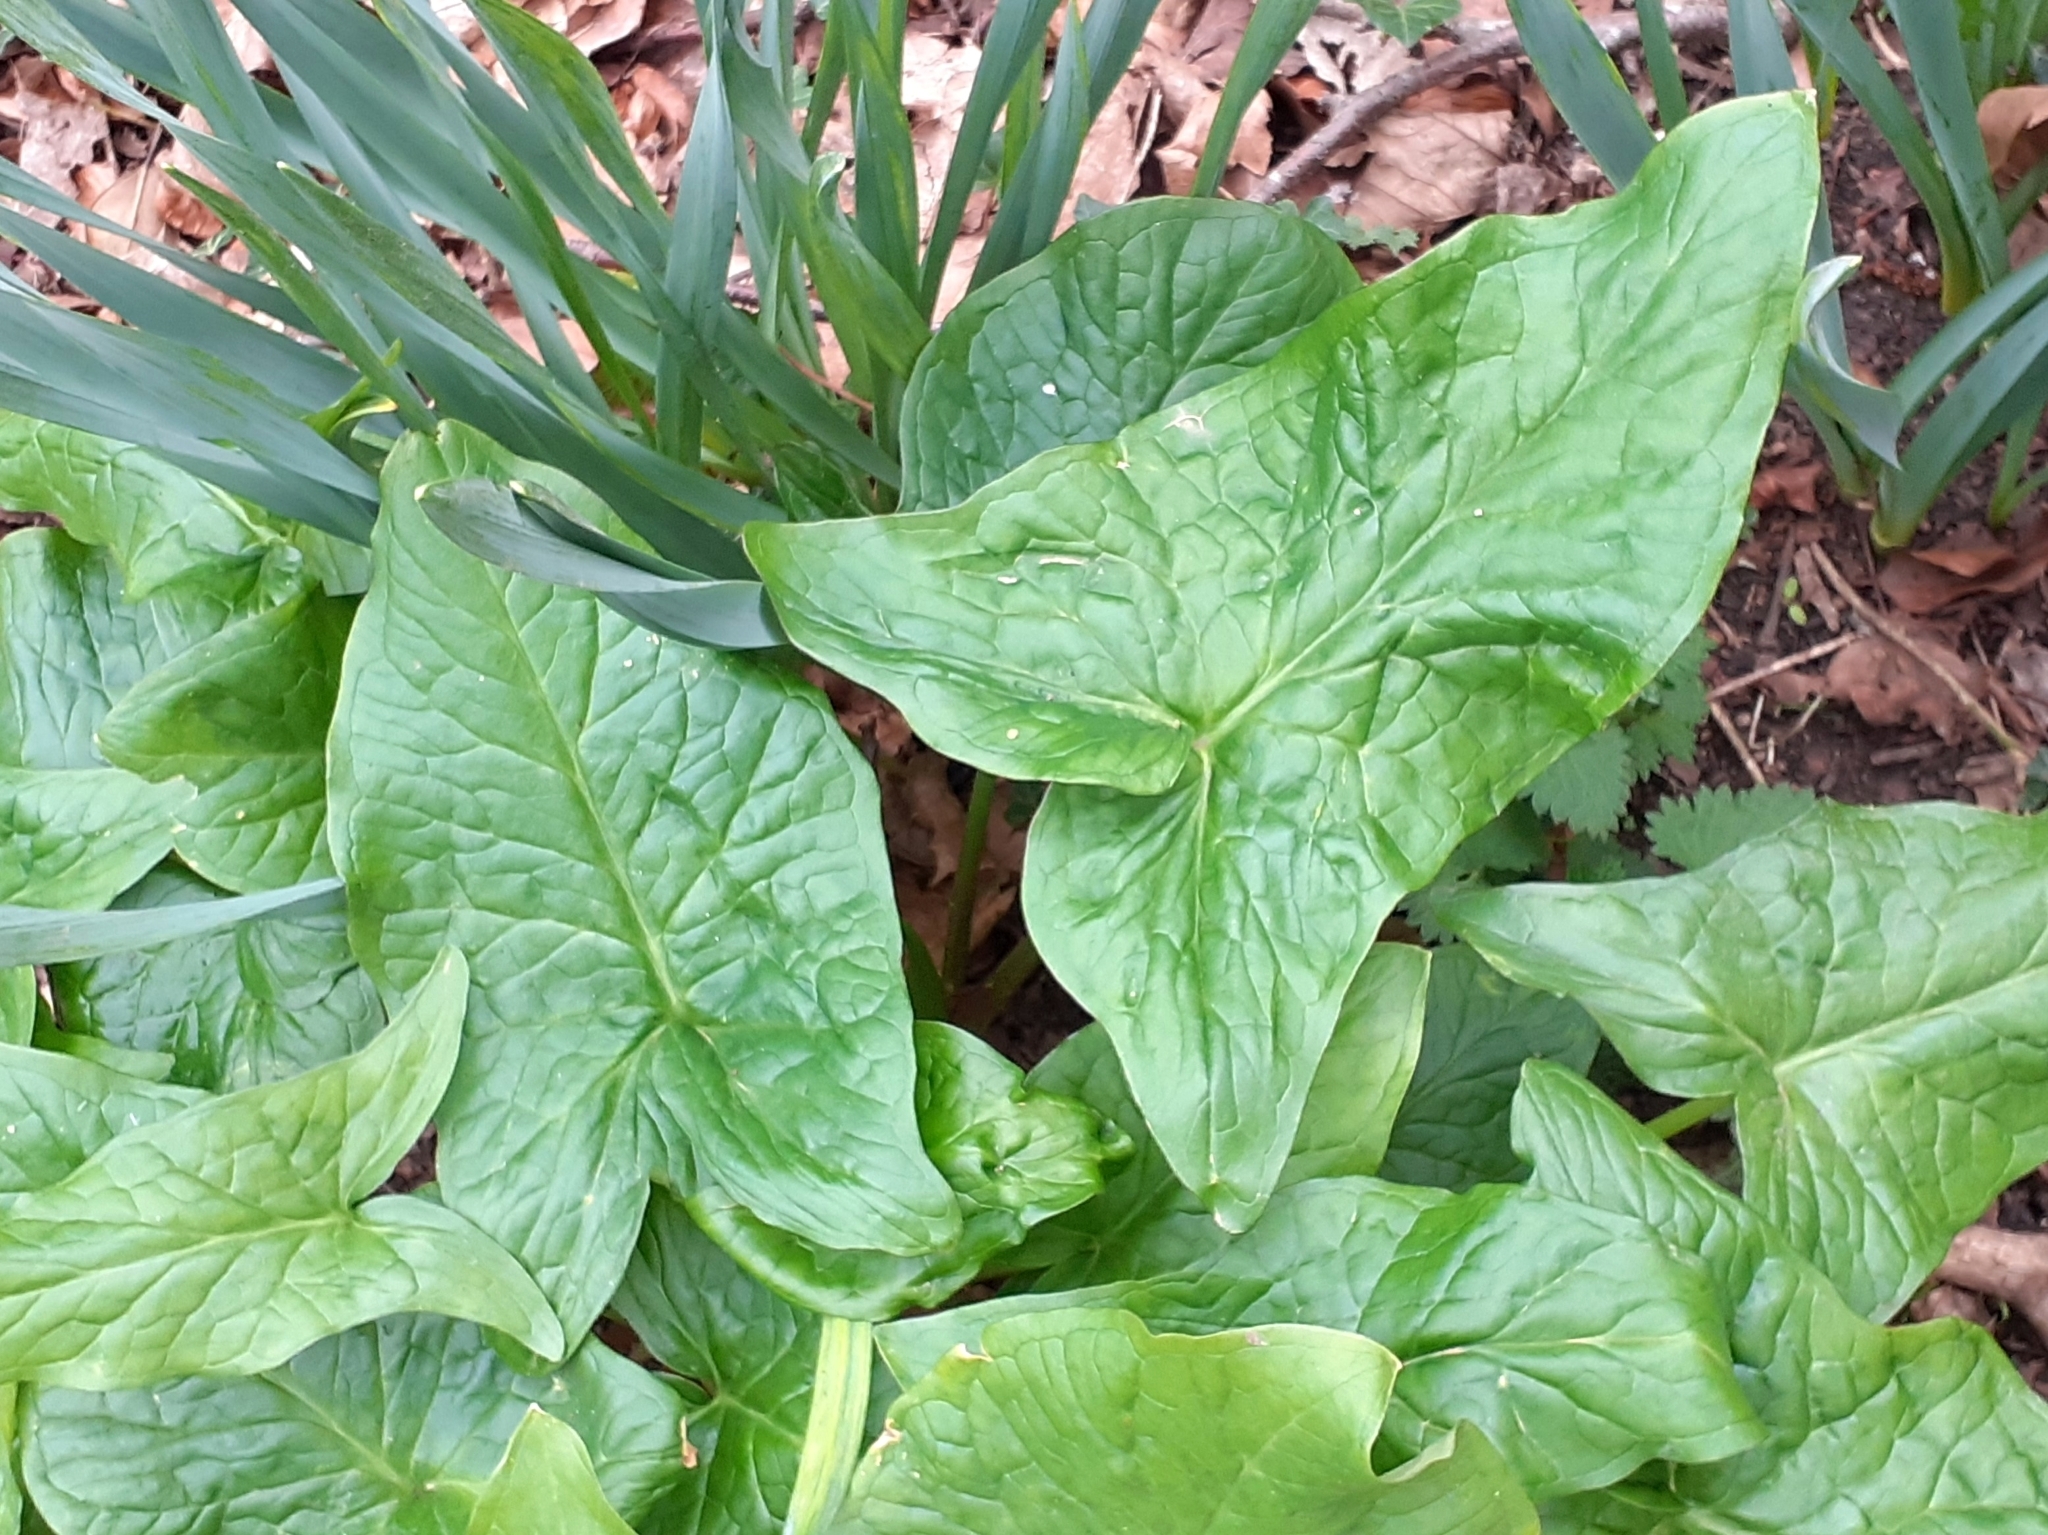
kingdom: Plantae
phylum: Tracheophyta
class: Liliopsida
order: Alismatales
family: Araceae
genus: Arum
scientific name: Arum maculatum
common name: Lords-and-ladies
